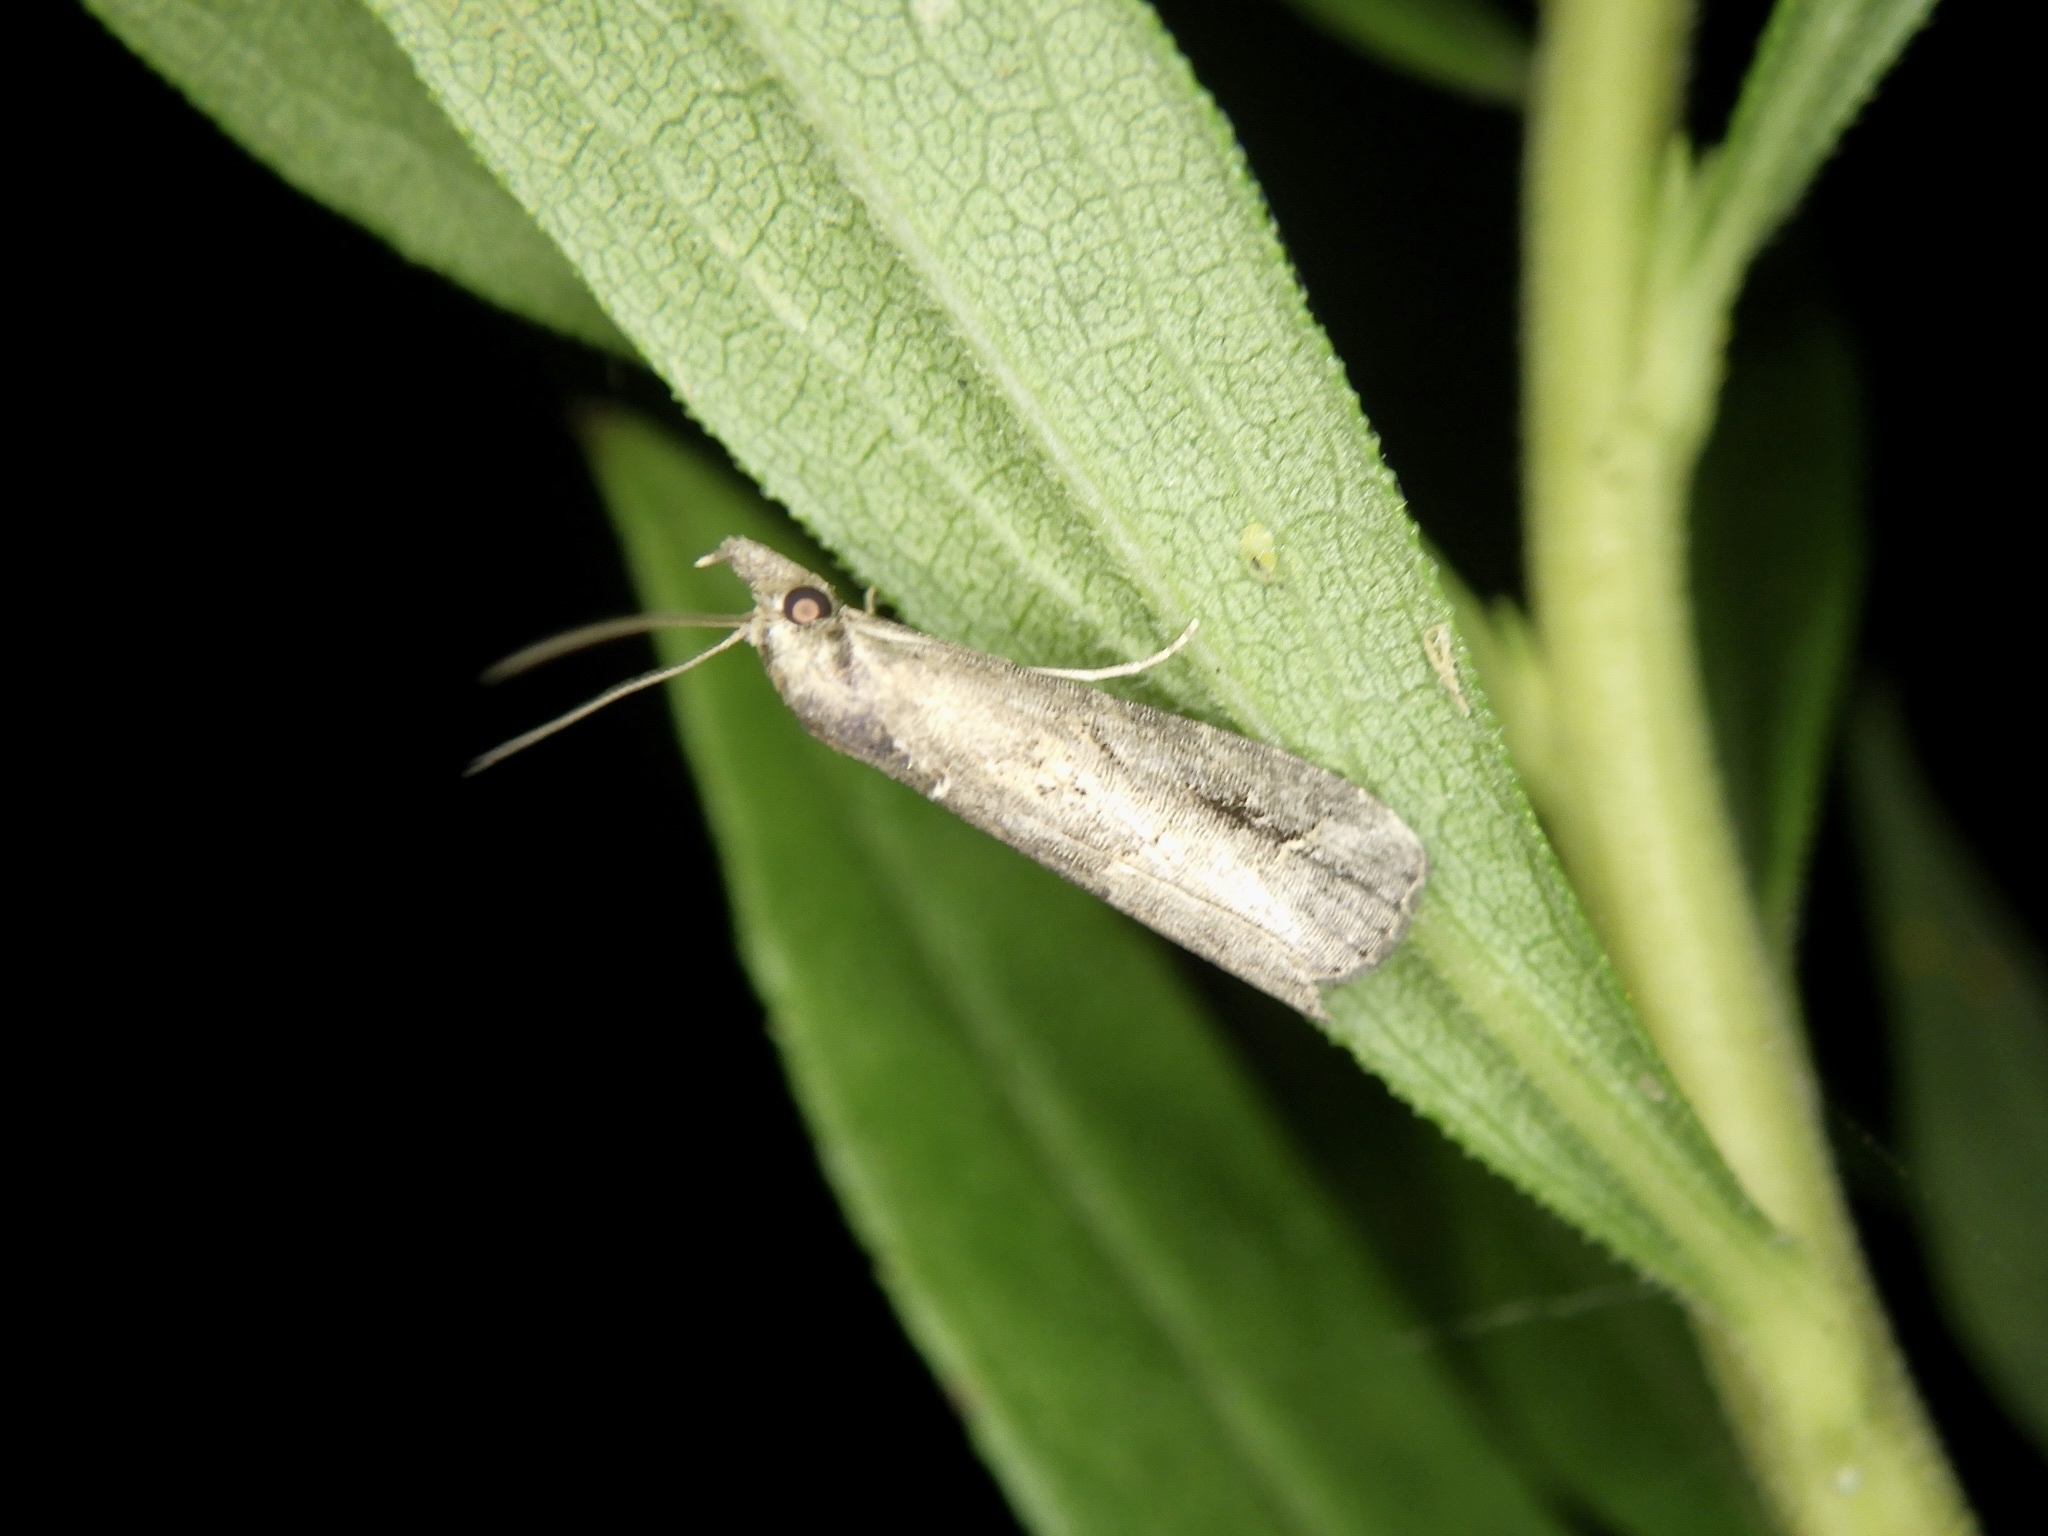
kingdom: Animalia
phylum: Arthropoda
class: Insecta
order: Lepidoptera
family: Erebidae
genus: Schrankia
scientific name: Schrankia costaestrigalis
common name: Pinion-streaked snout
